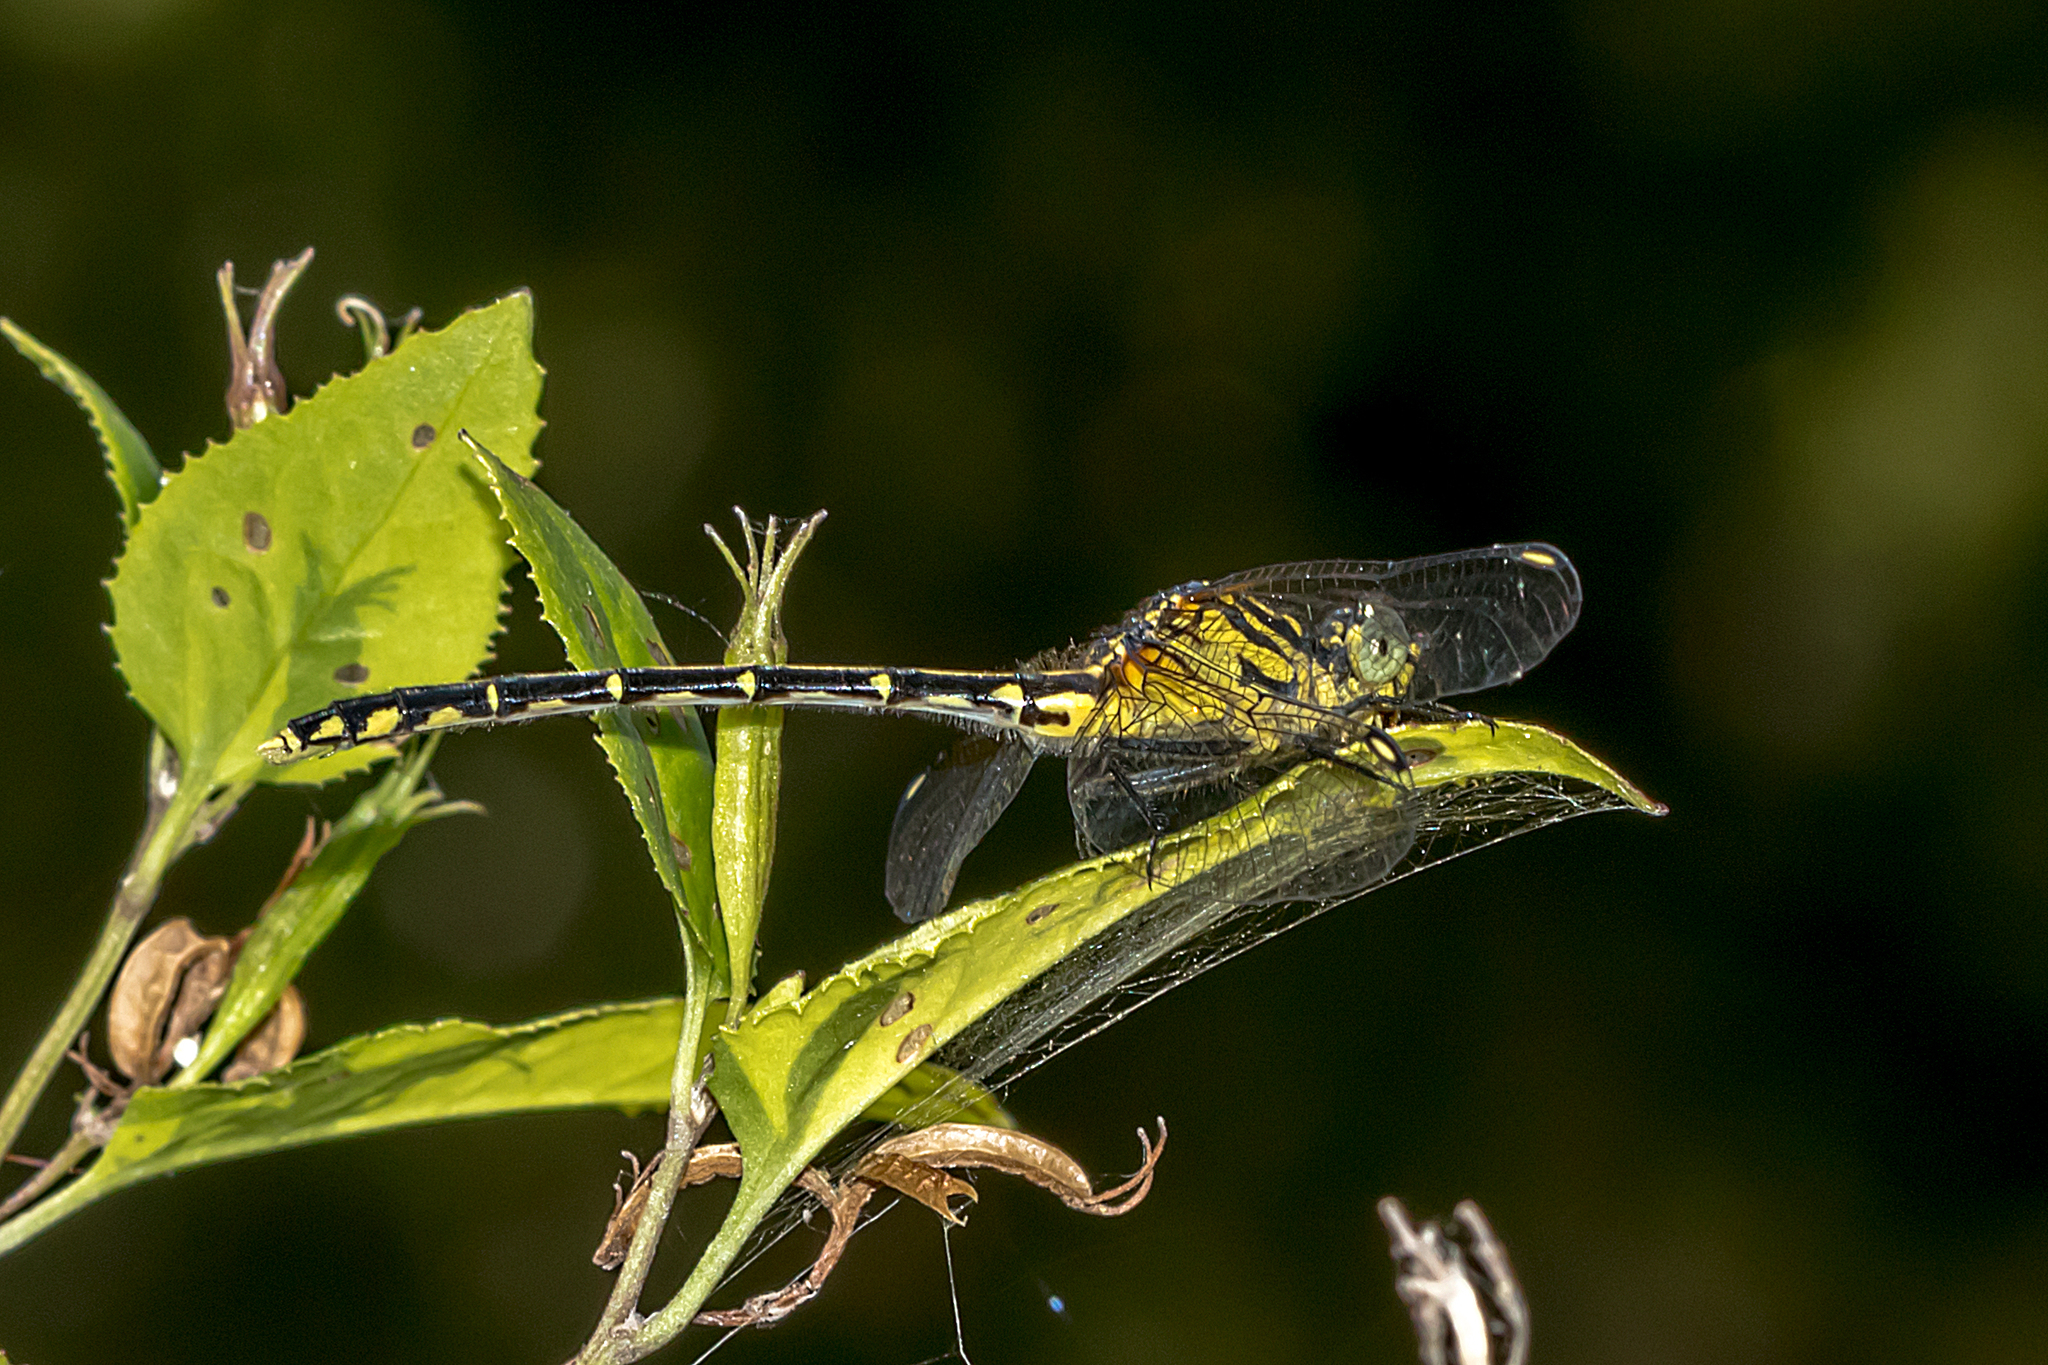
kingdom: Animalia
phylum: Arthropoda
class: Insecta
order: Odonata
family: Gomphidae
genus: Austrogomphus
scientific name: Austrogomphus ochraceus
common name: Jade hunter
